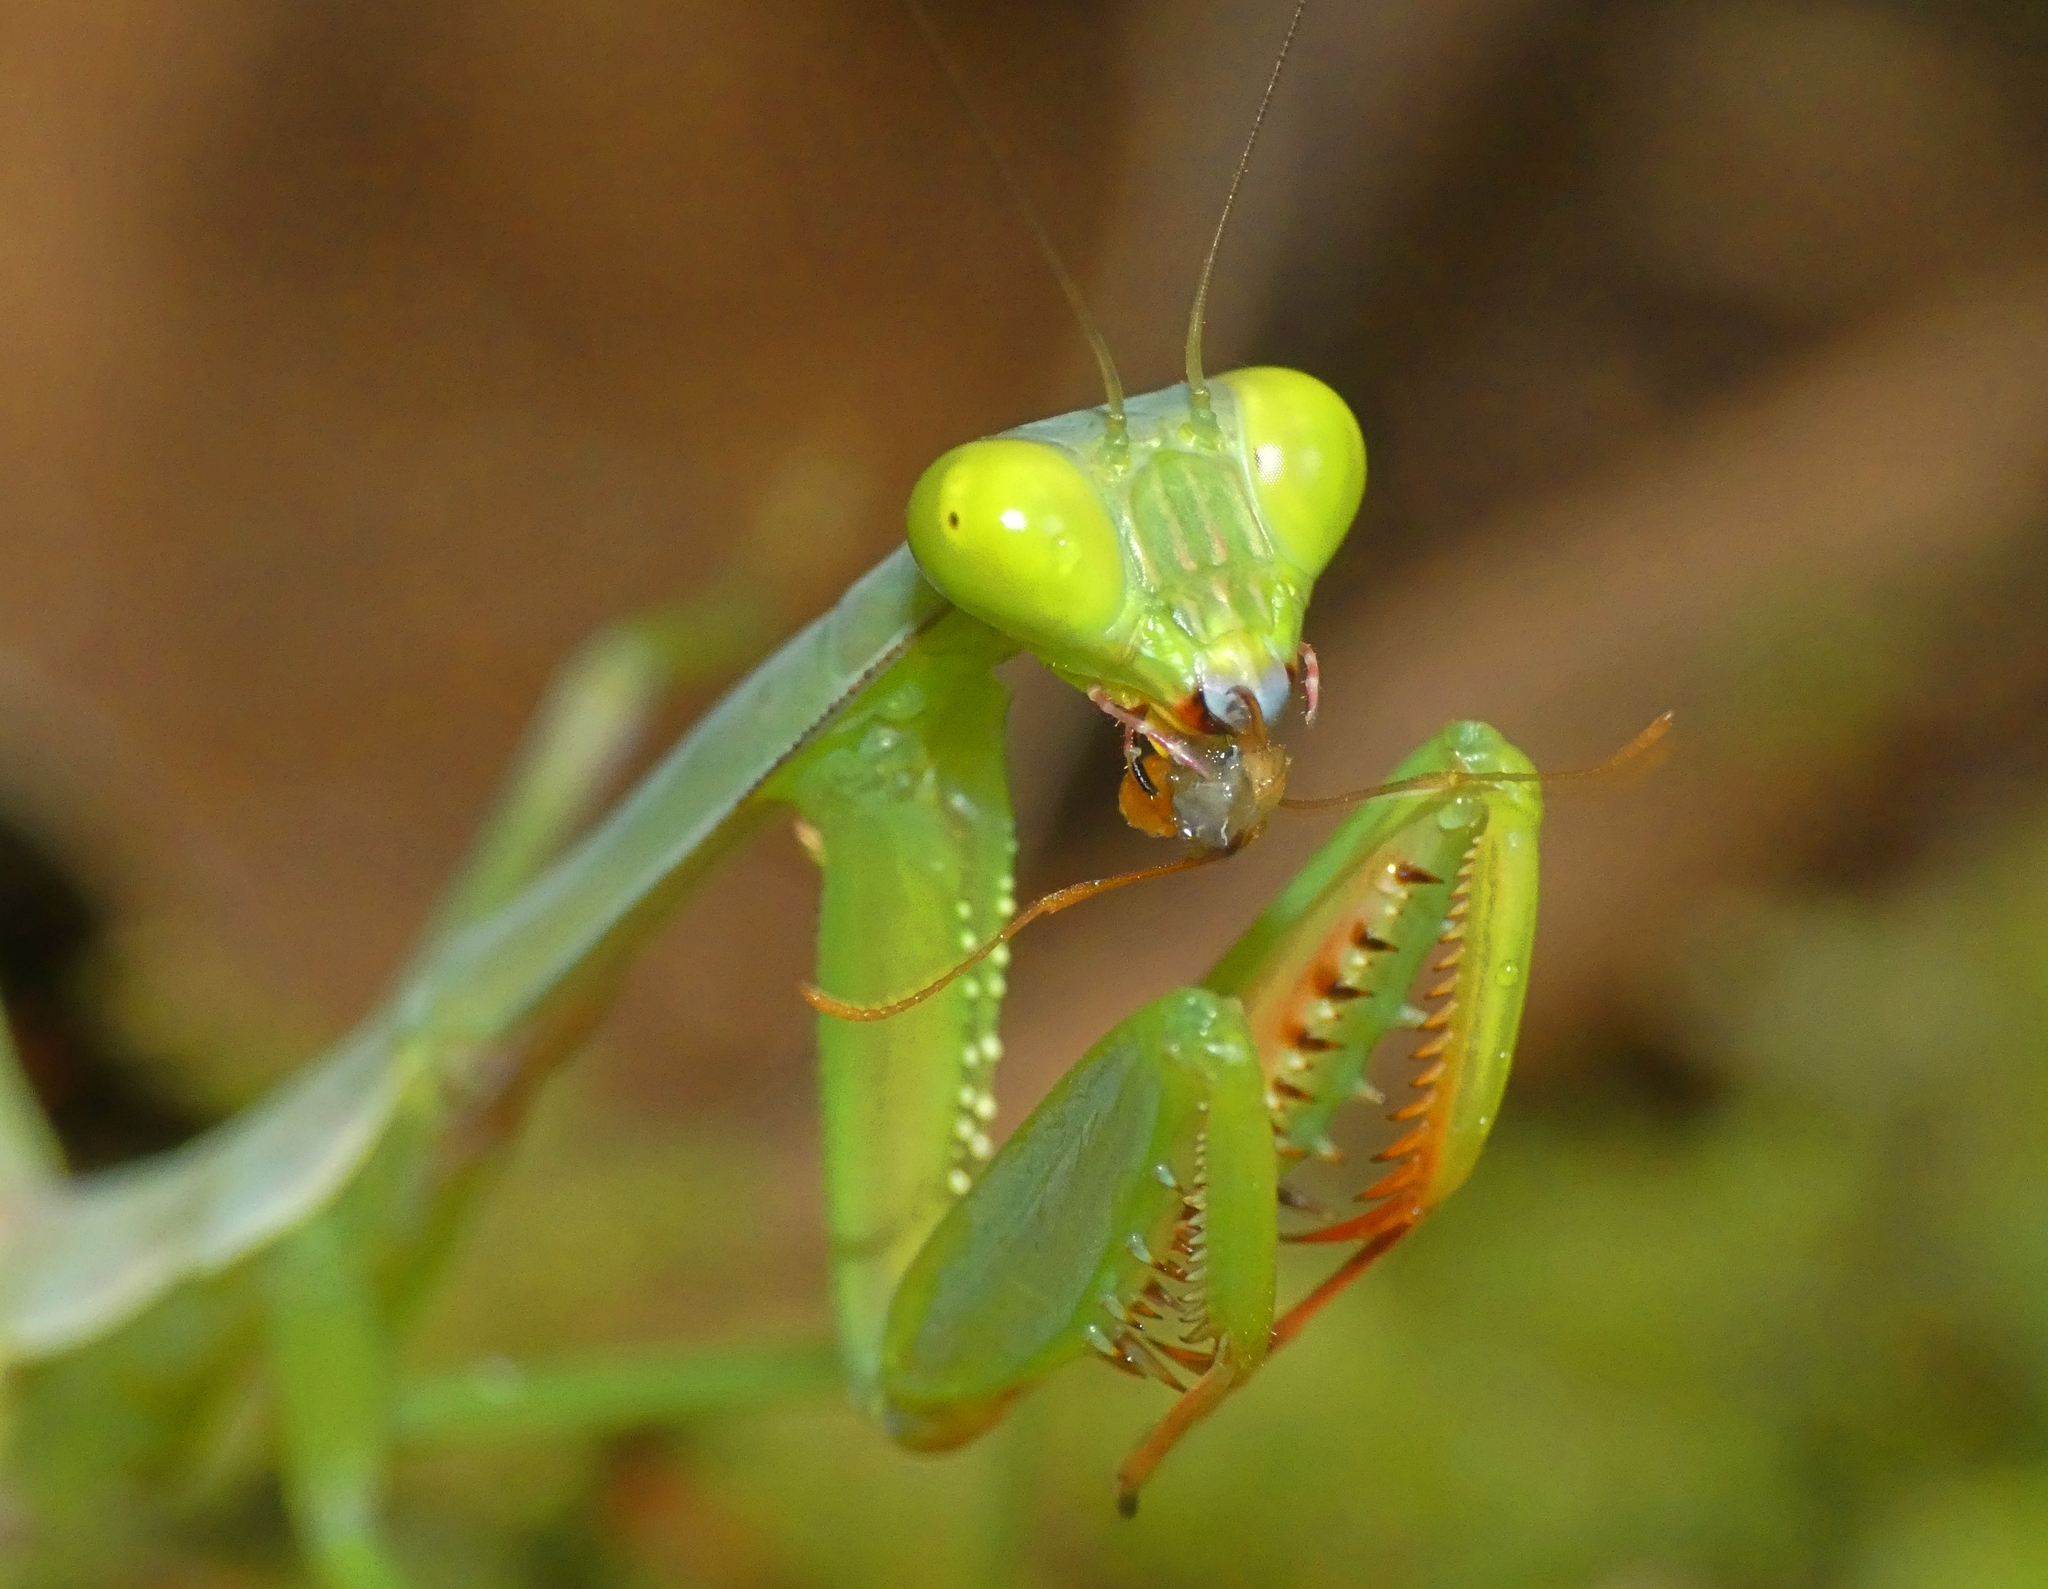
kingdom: Animalia
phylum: Arthropoda
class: Insecta
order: Mantodea
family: Mantidae
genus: Hierodula
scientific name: Hierodula majuscula
